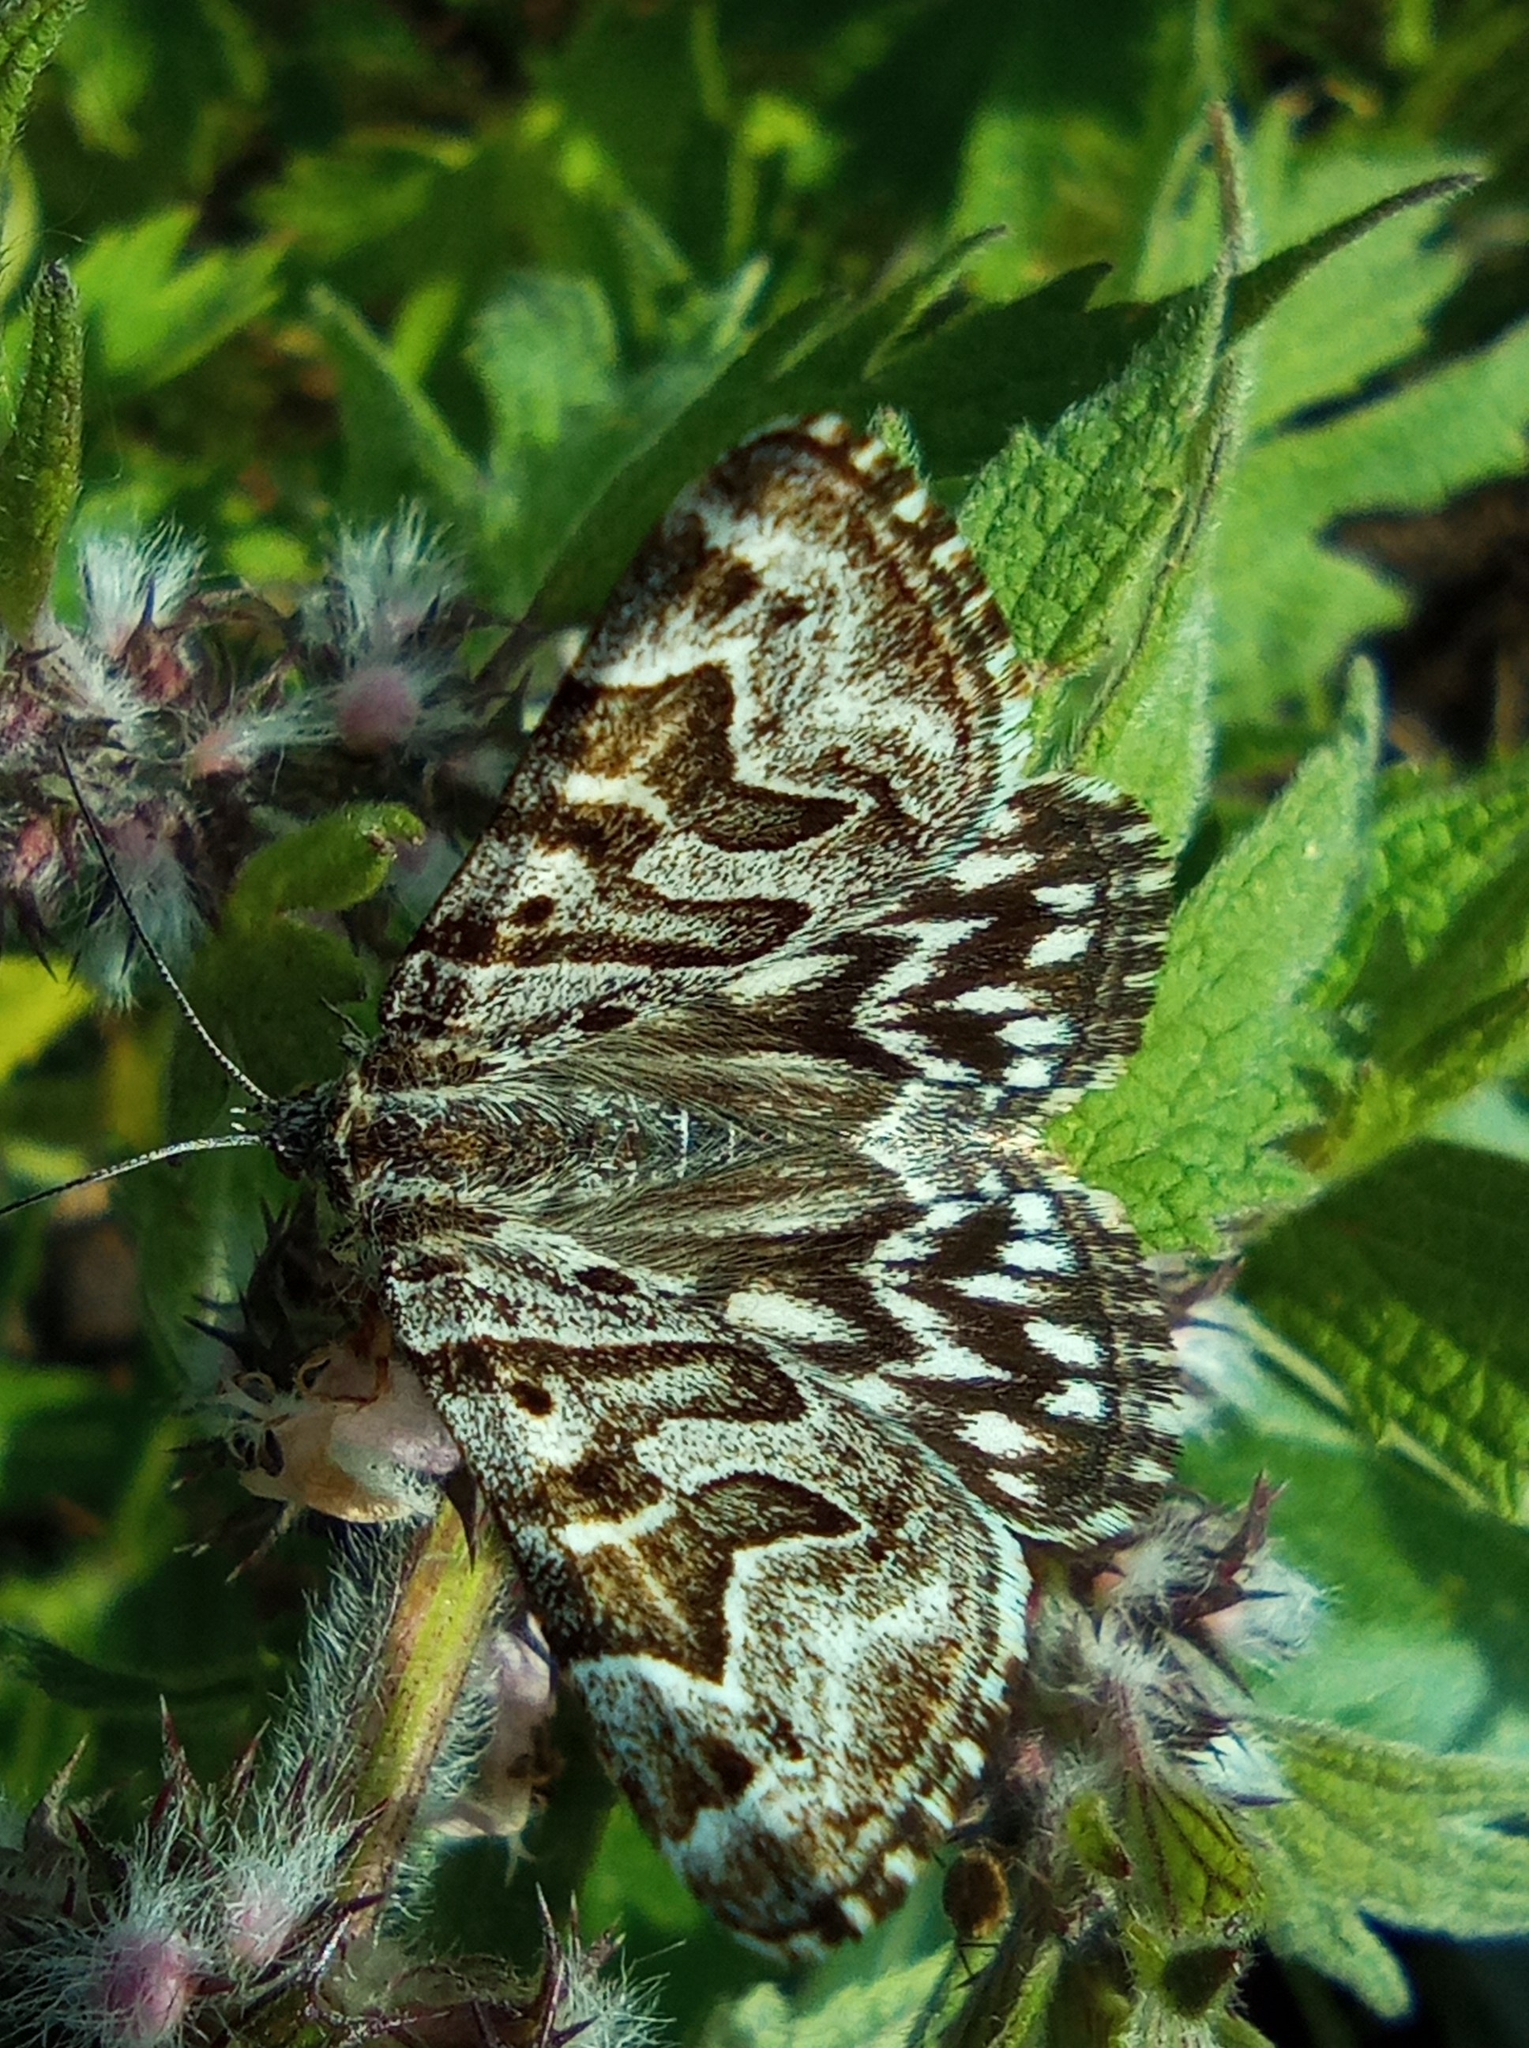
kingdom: Animalia
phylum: Arthropoda
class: Insecta
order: Lepidoptera
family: Erebidae
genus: Callistege
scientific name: Callistege mi
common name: Mother shipton
